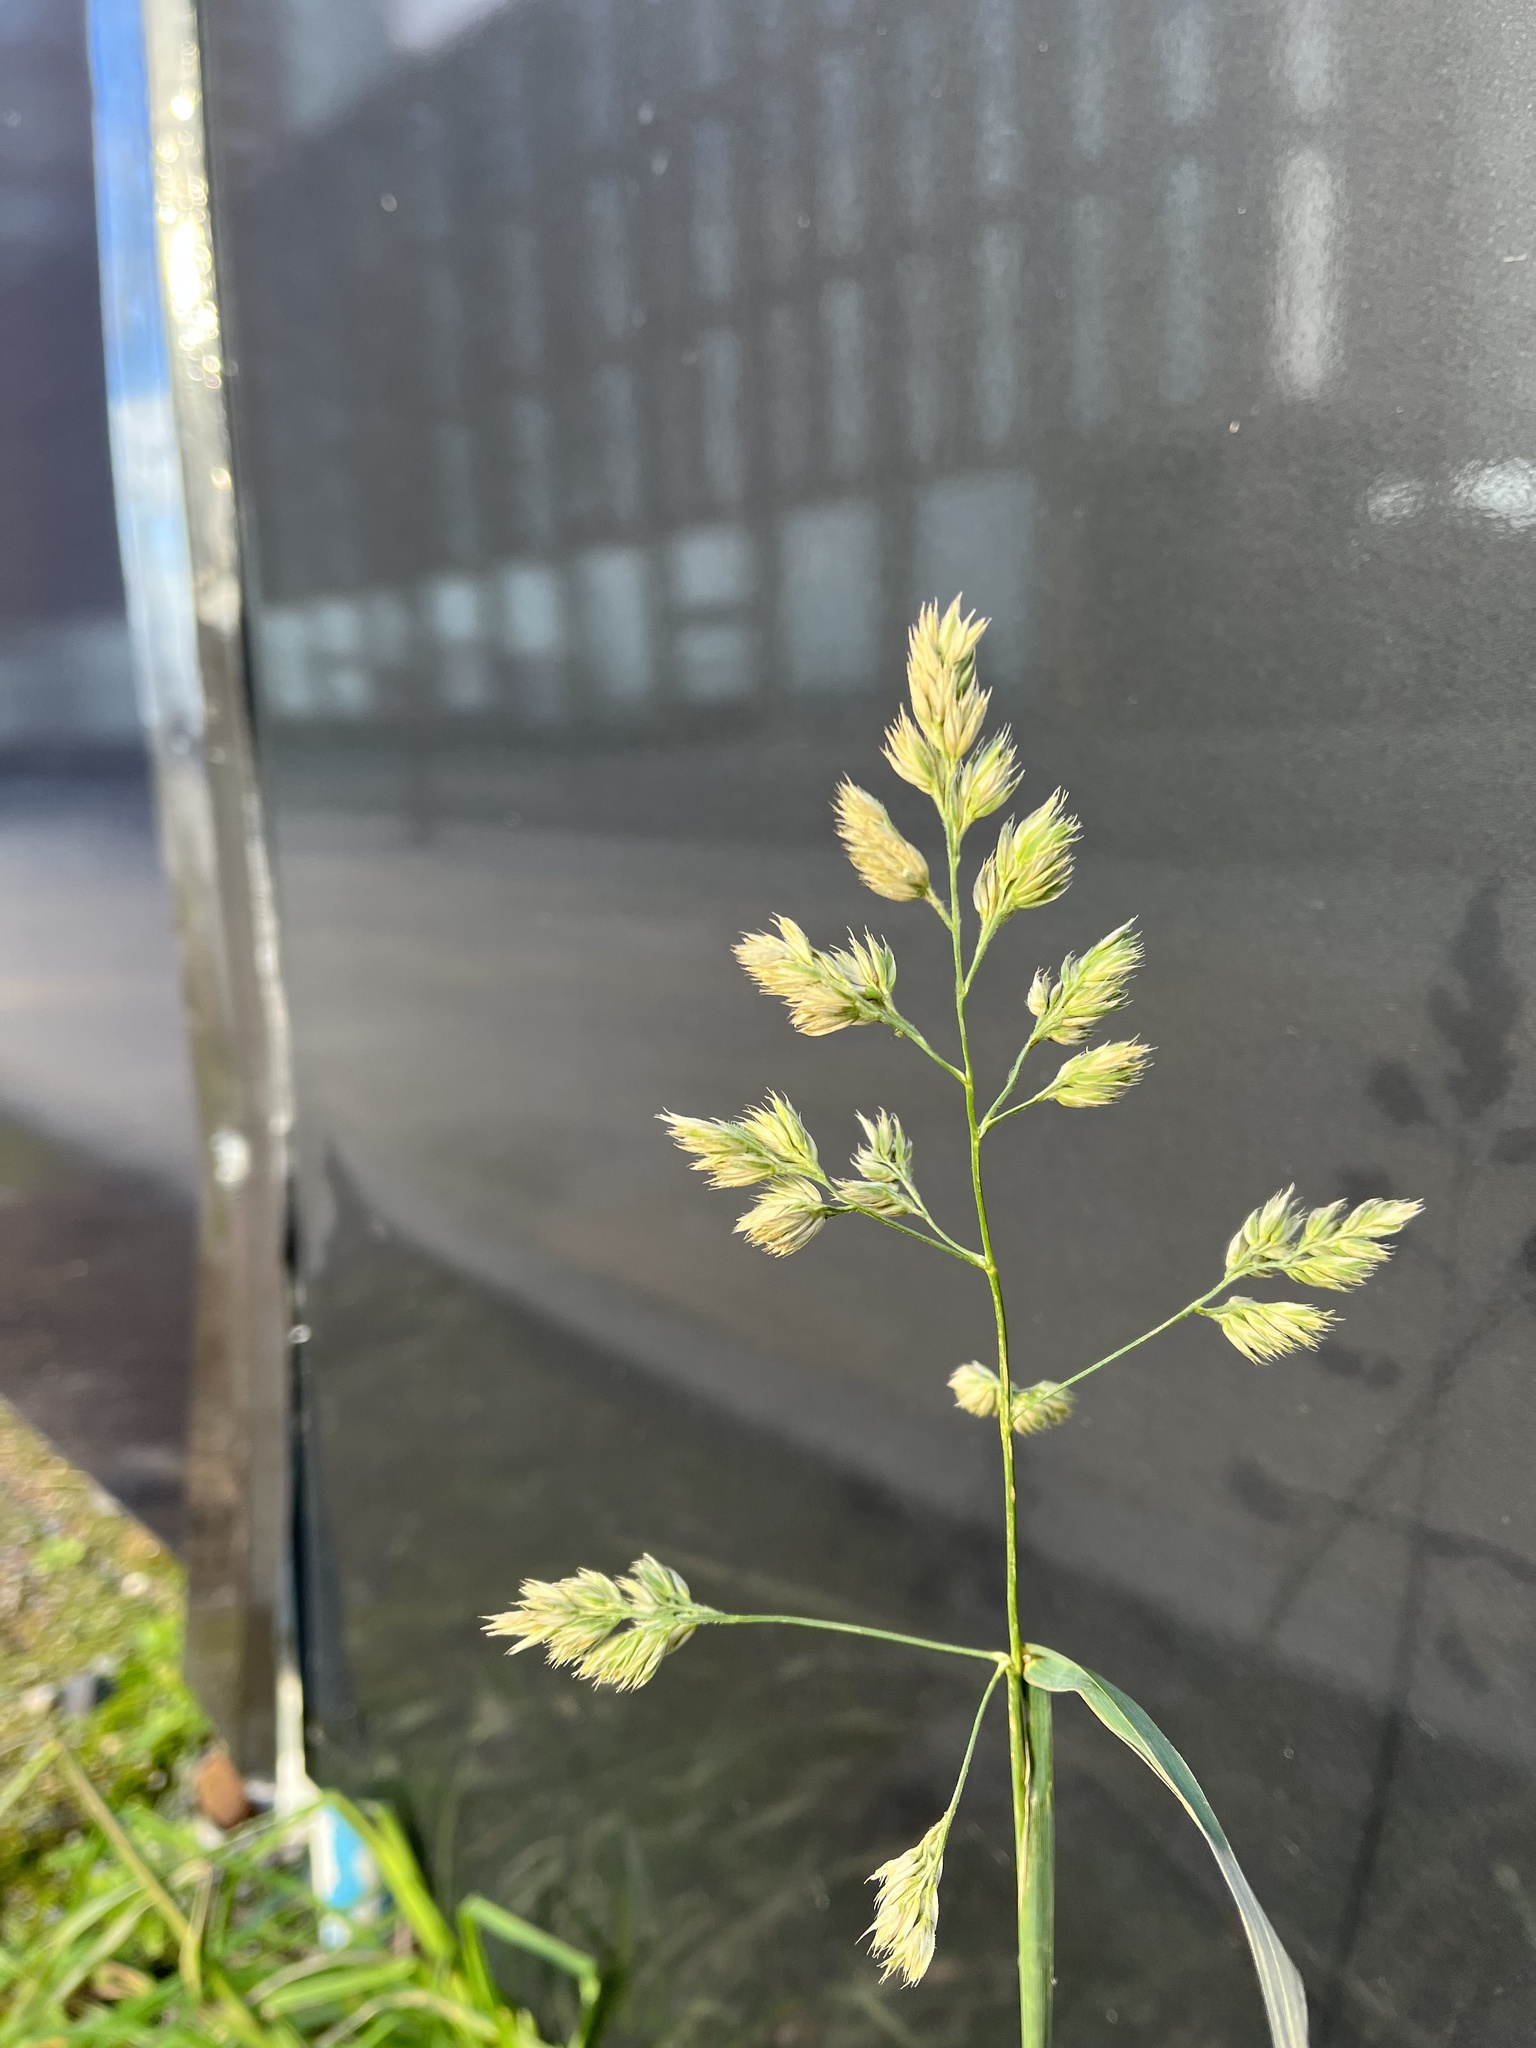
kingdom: Plantae
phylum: Tracheophyta
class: Liliopsida
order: Poales
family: Poaceae
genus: Dactylis
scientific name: Dactylis glomerata
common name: Orchardgrass
